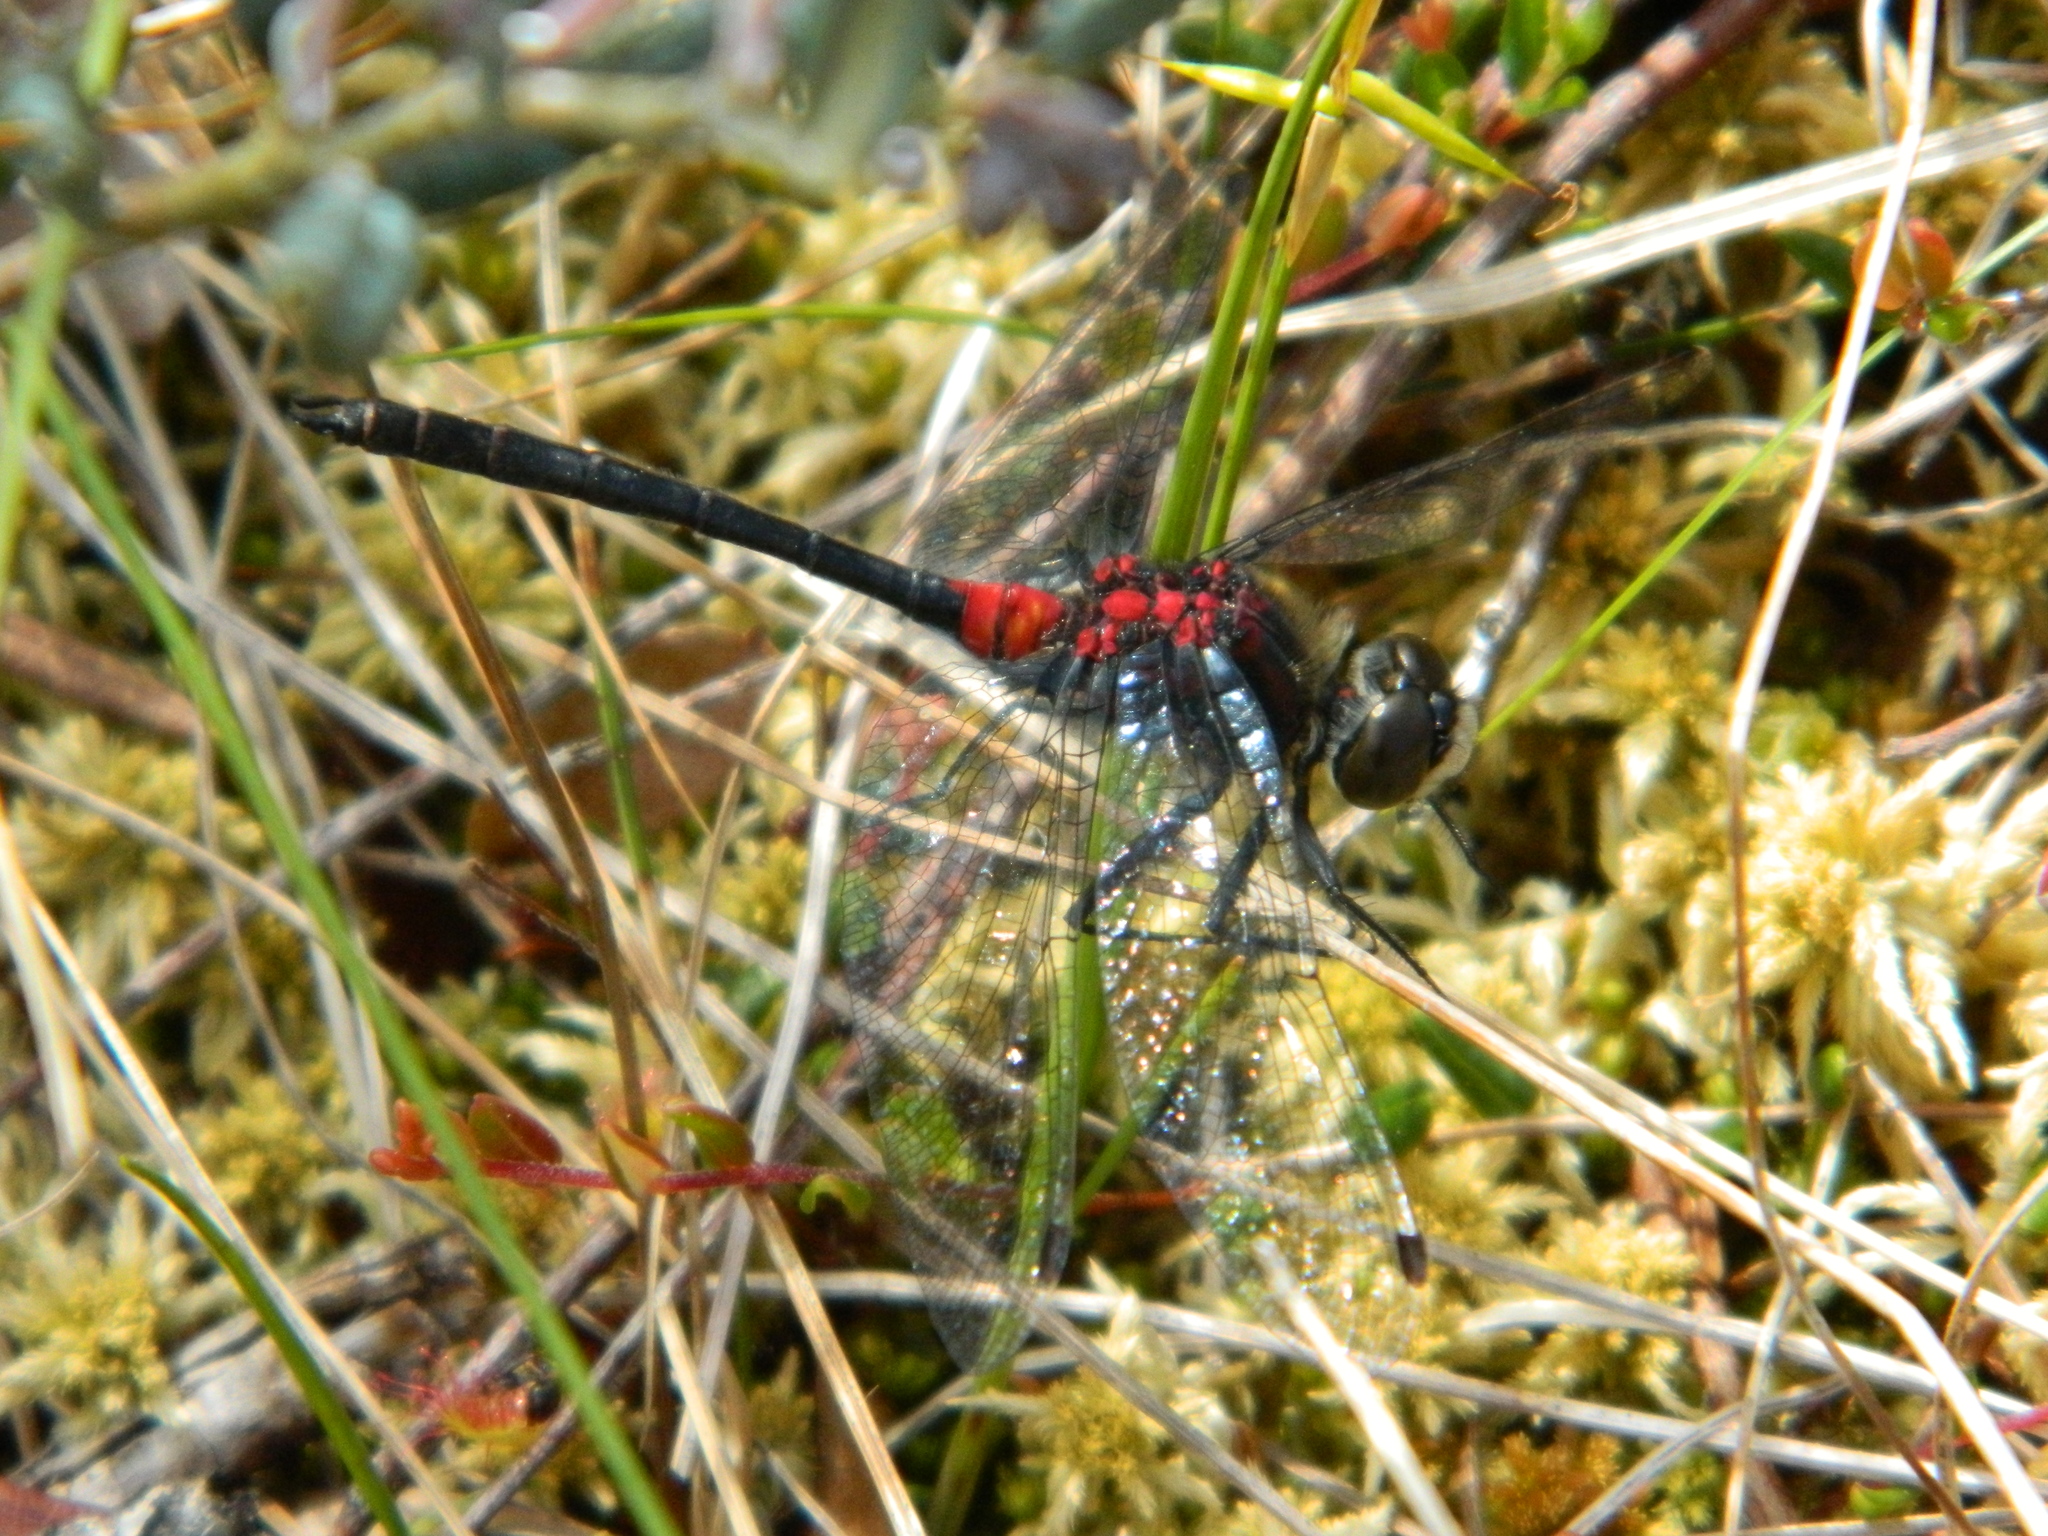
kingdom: Animalia
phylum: Arthropoda
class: Insecta
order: Odonata
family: Libellulidae
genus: Leucorrhinia
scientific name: Leucorrhinia glacialis
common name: Crimson-ringed whiteface
